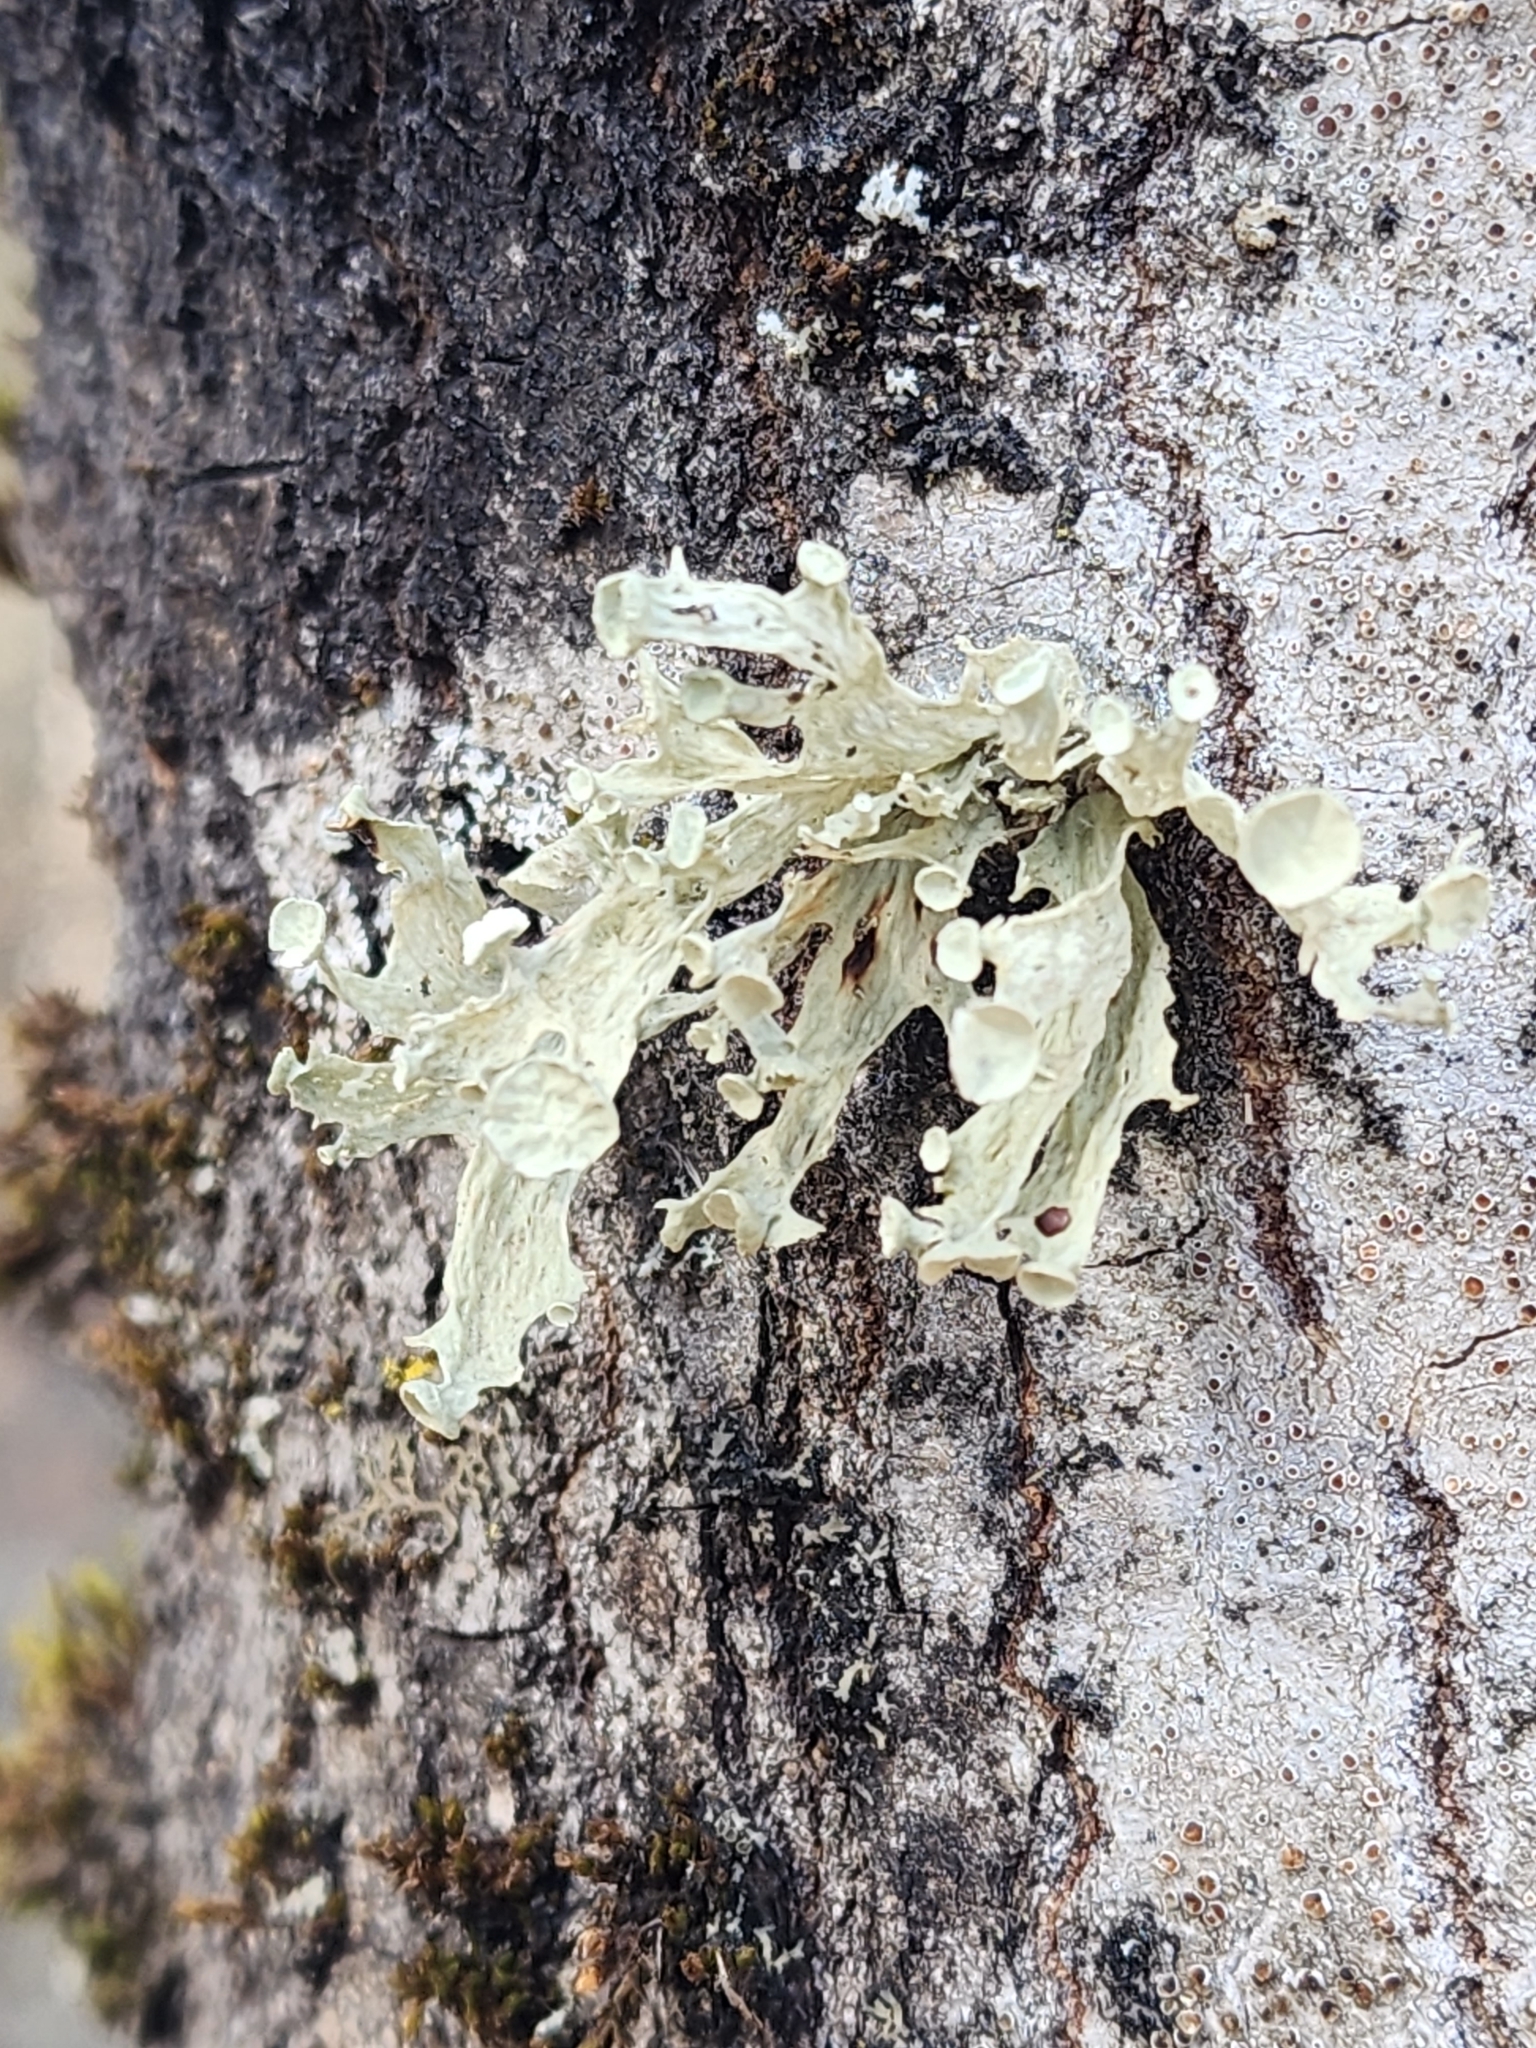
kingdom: Fungi
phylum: Ascomycota
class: Lecanoromycetes
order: Lecanorales
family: Ramalinaceae
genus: Ramalina
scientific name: Ramalina sinensis
